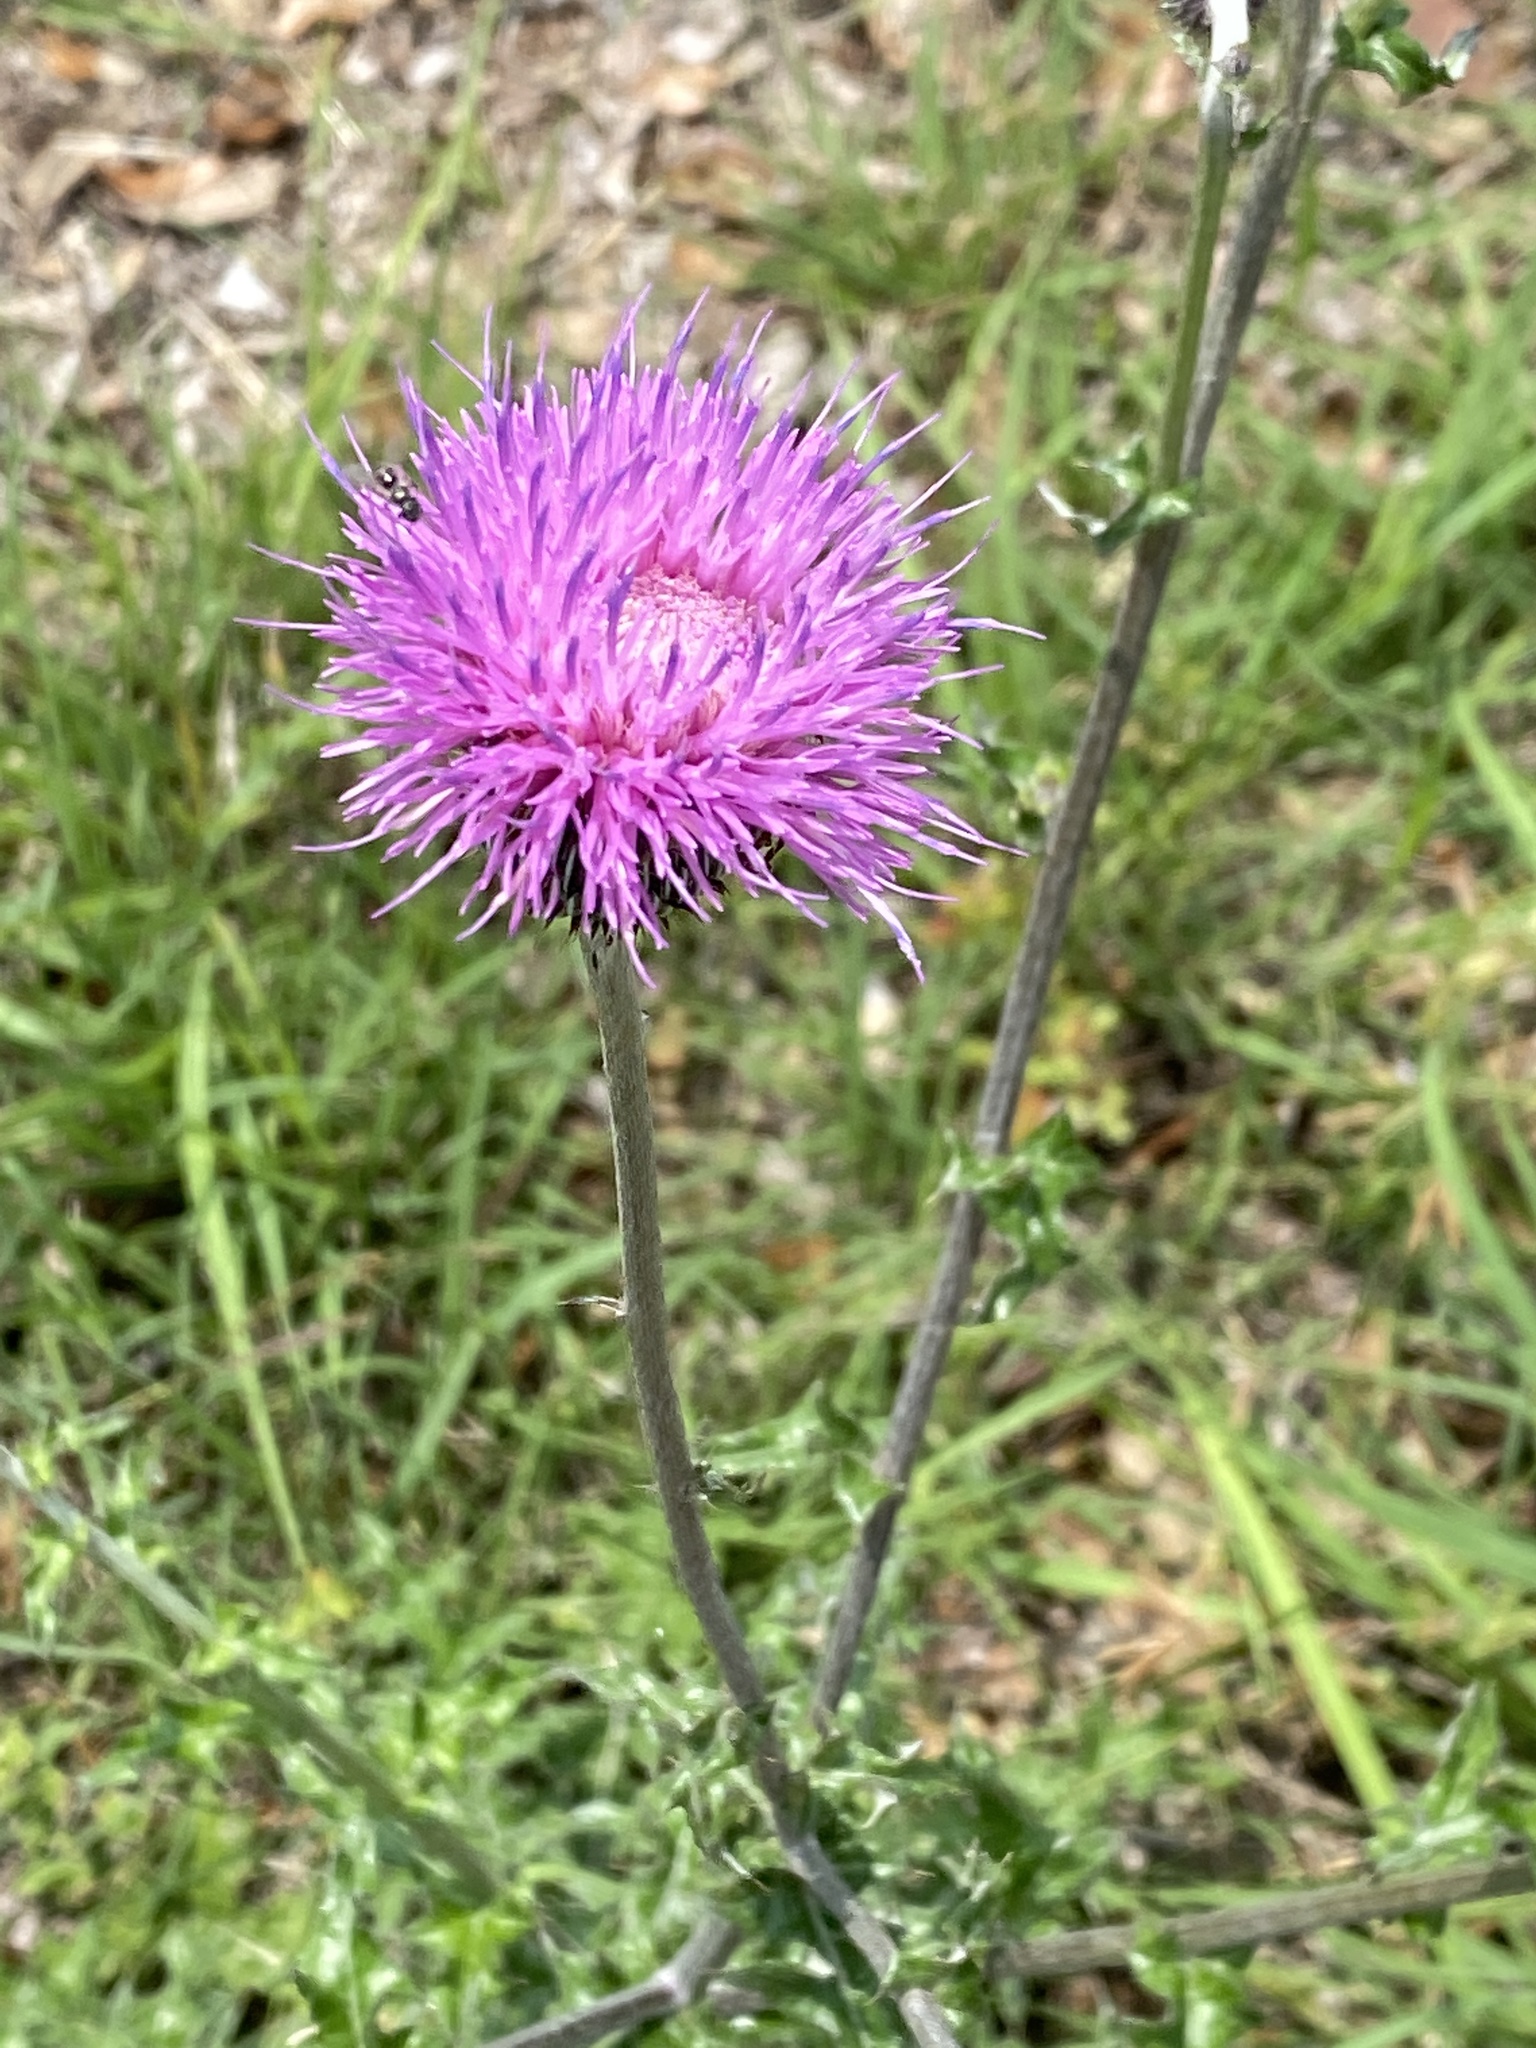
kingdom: Plantae
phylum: Tracheophyta
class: Magnoliopsida
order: Asterales
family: Asteraceae
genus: Cirsium
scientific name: Cirsium texanum
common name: Texas purple thistle
